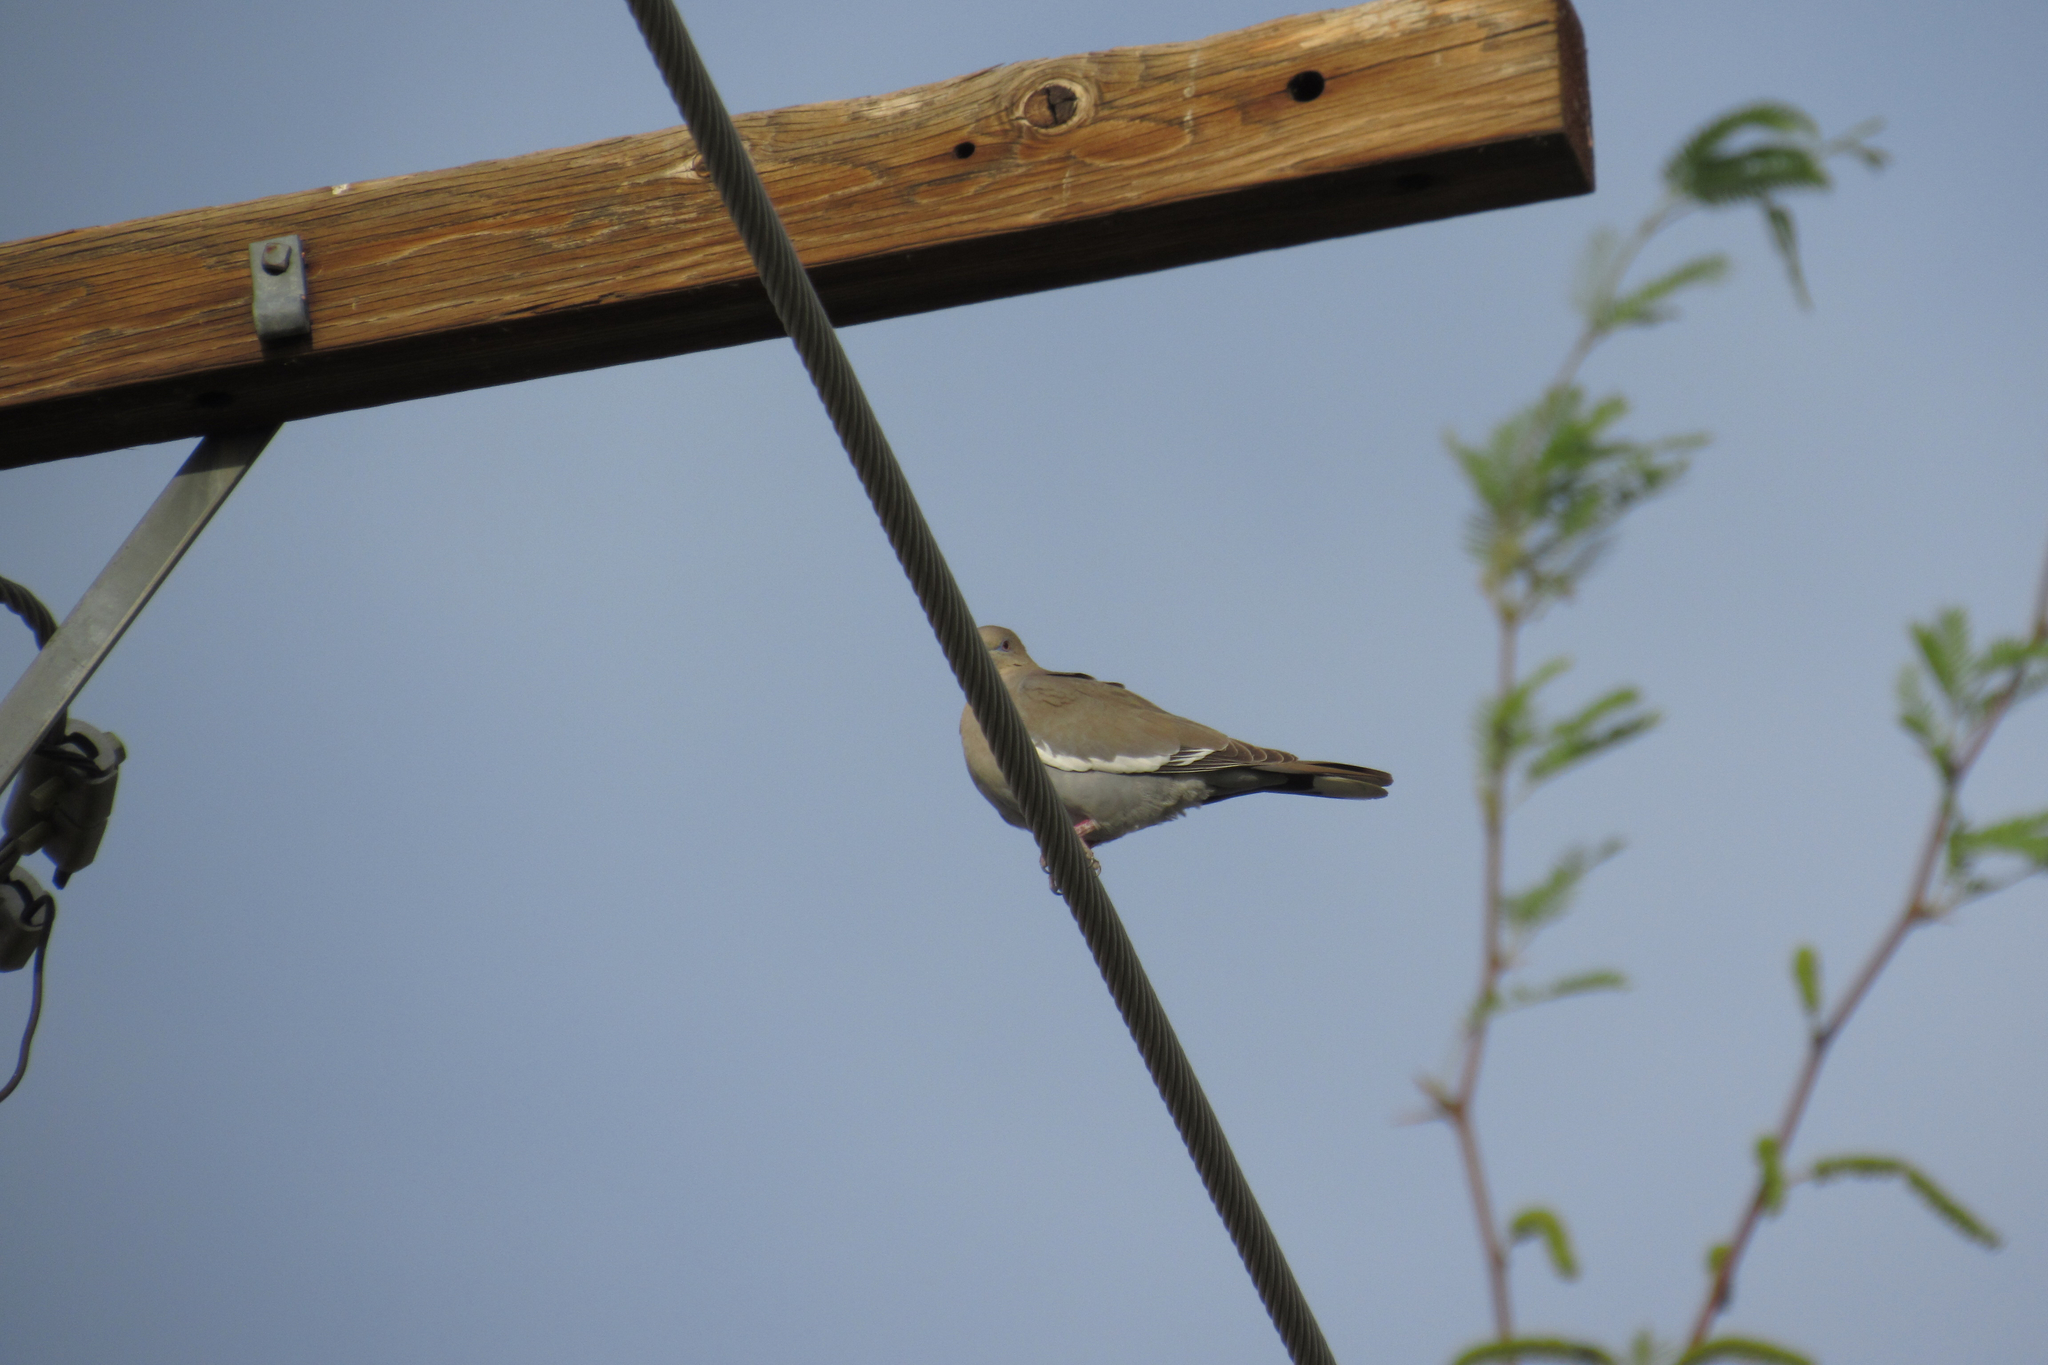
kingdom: Animalia
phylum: Chordata
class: Aves
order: Columbiformes
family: Columbidae
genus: Zenaida
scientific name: Zenaida asiatica
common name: White-winged dove
